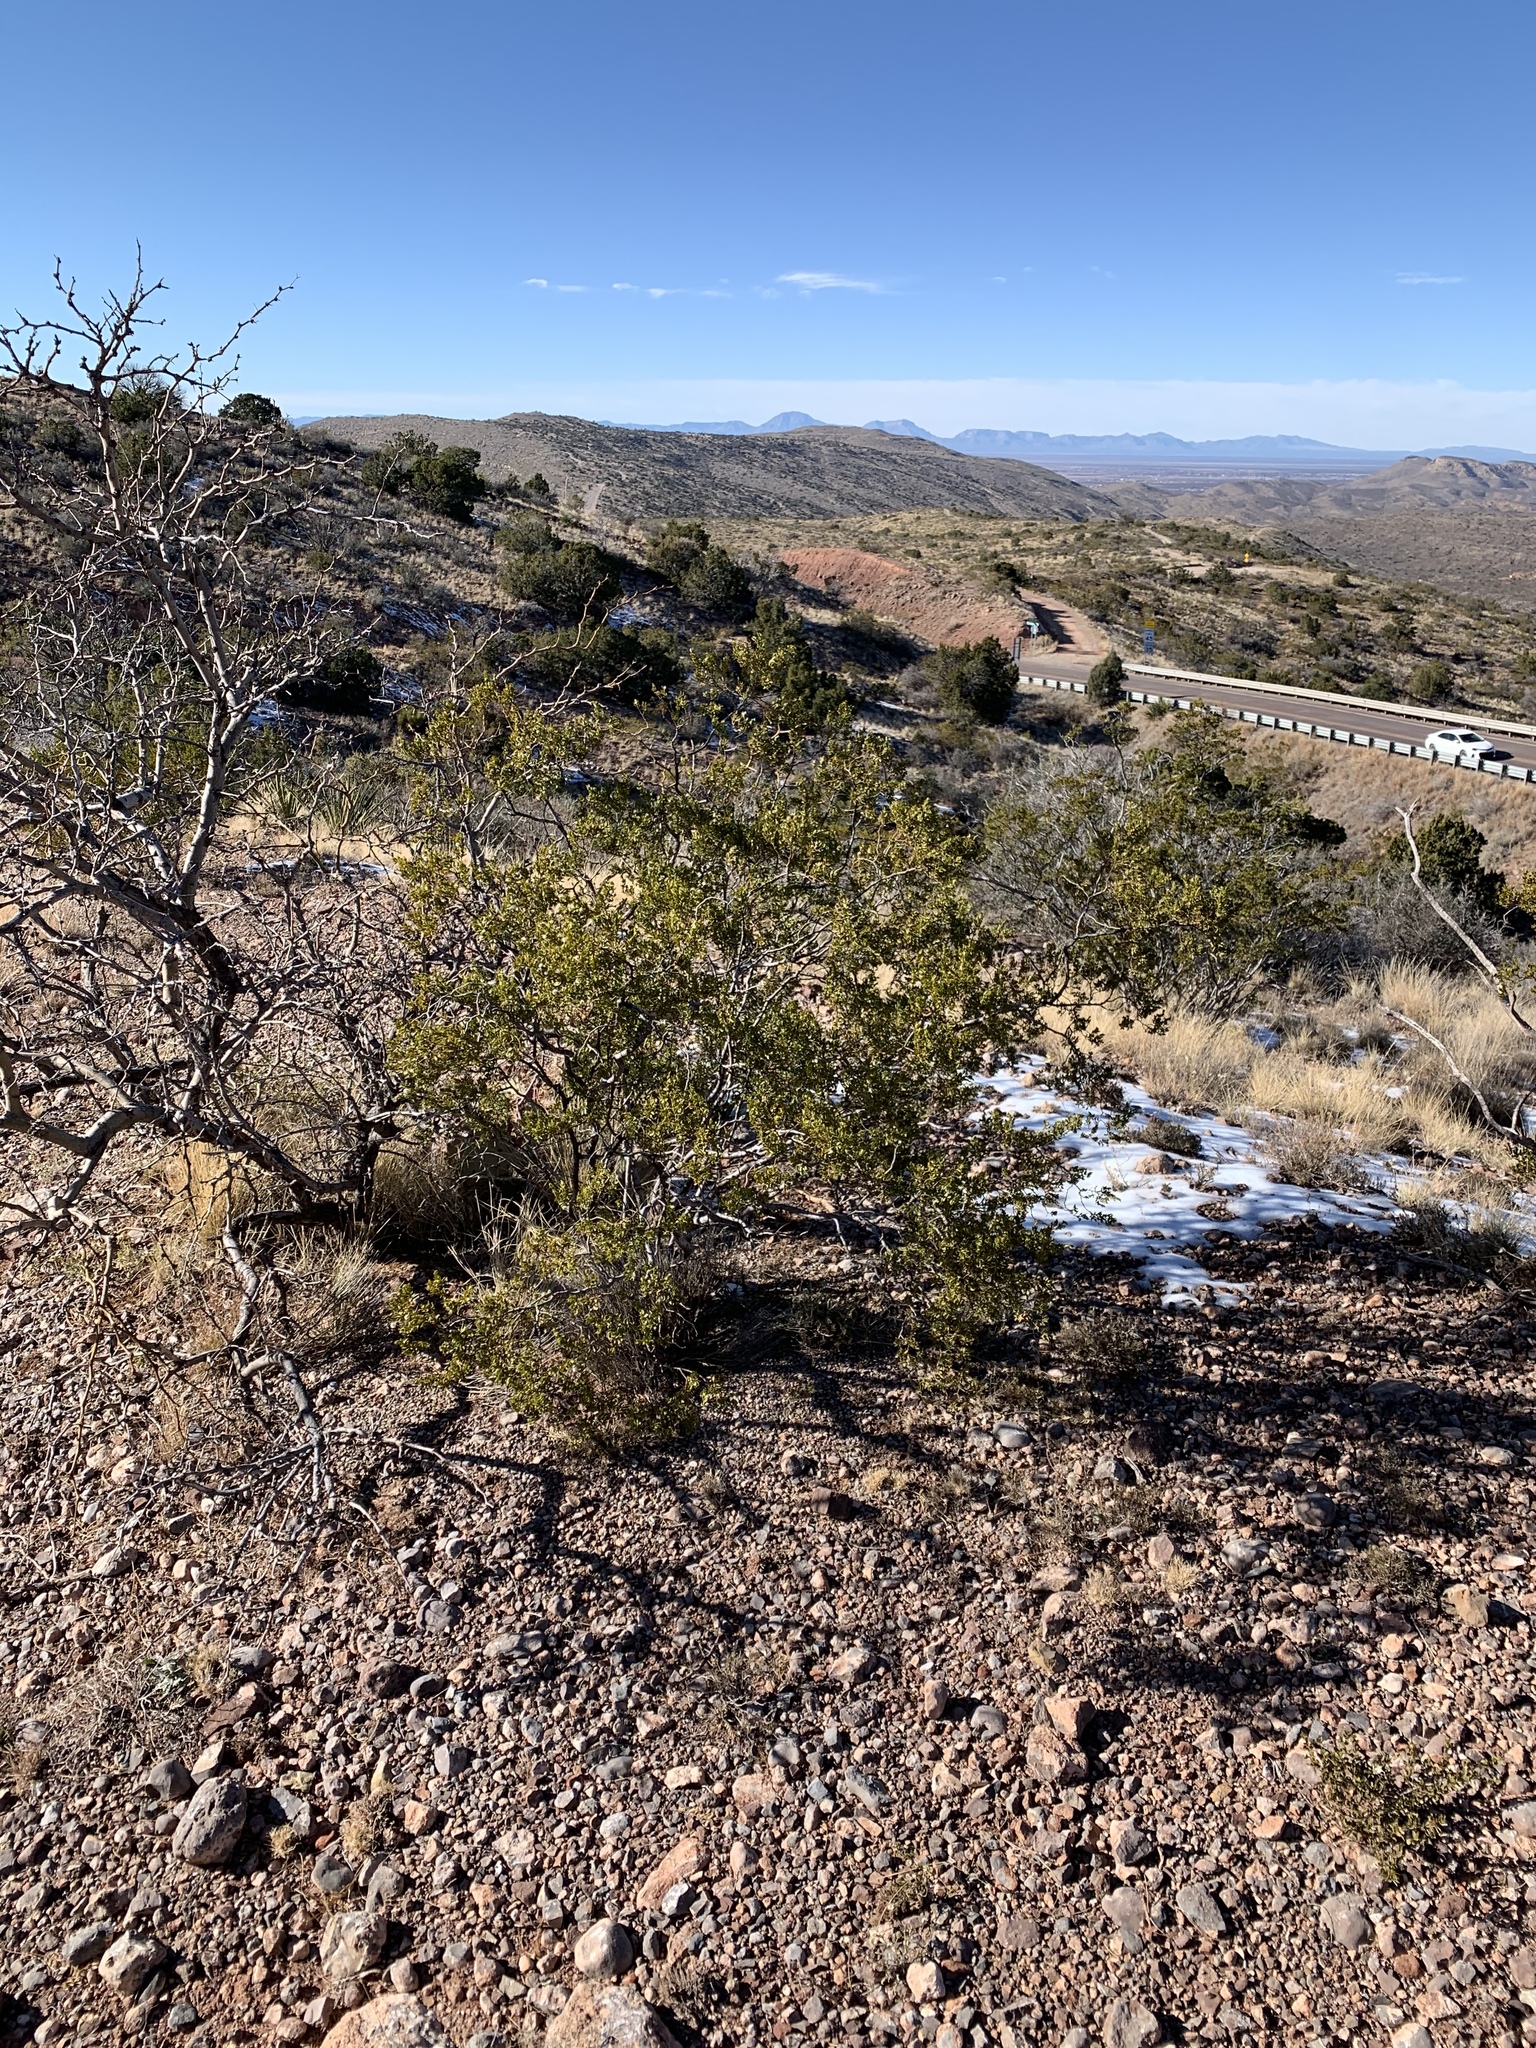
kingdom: Plantae
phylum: Tracheophyta
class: Magnoliopsida
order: Zygophyllales
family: Zygophyllaceae
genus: Larrea
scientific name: Larrea tridentata
